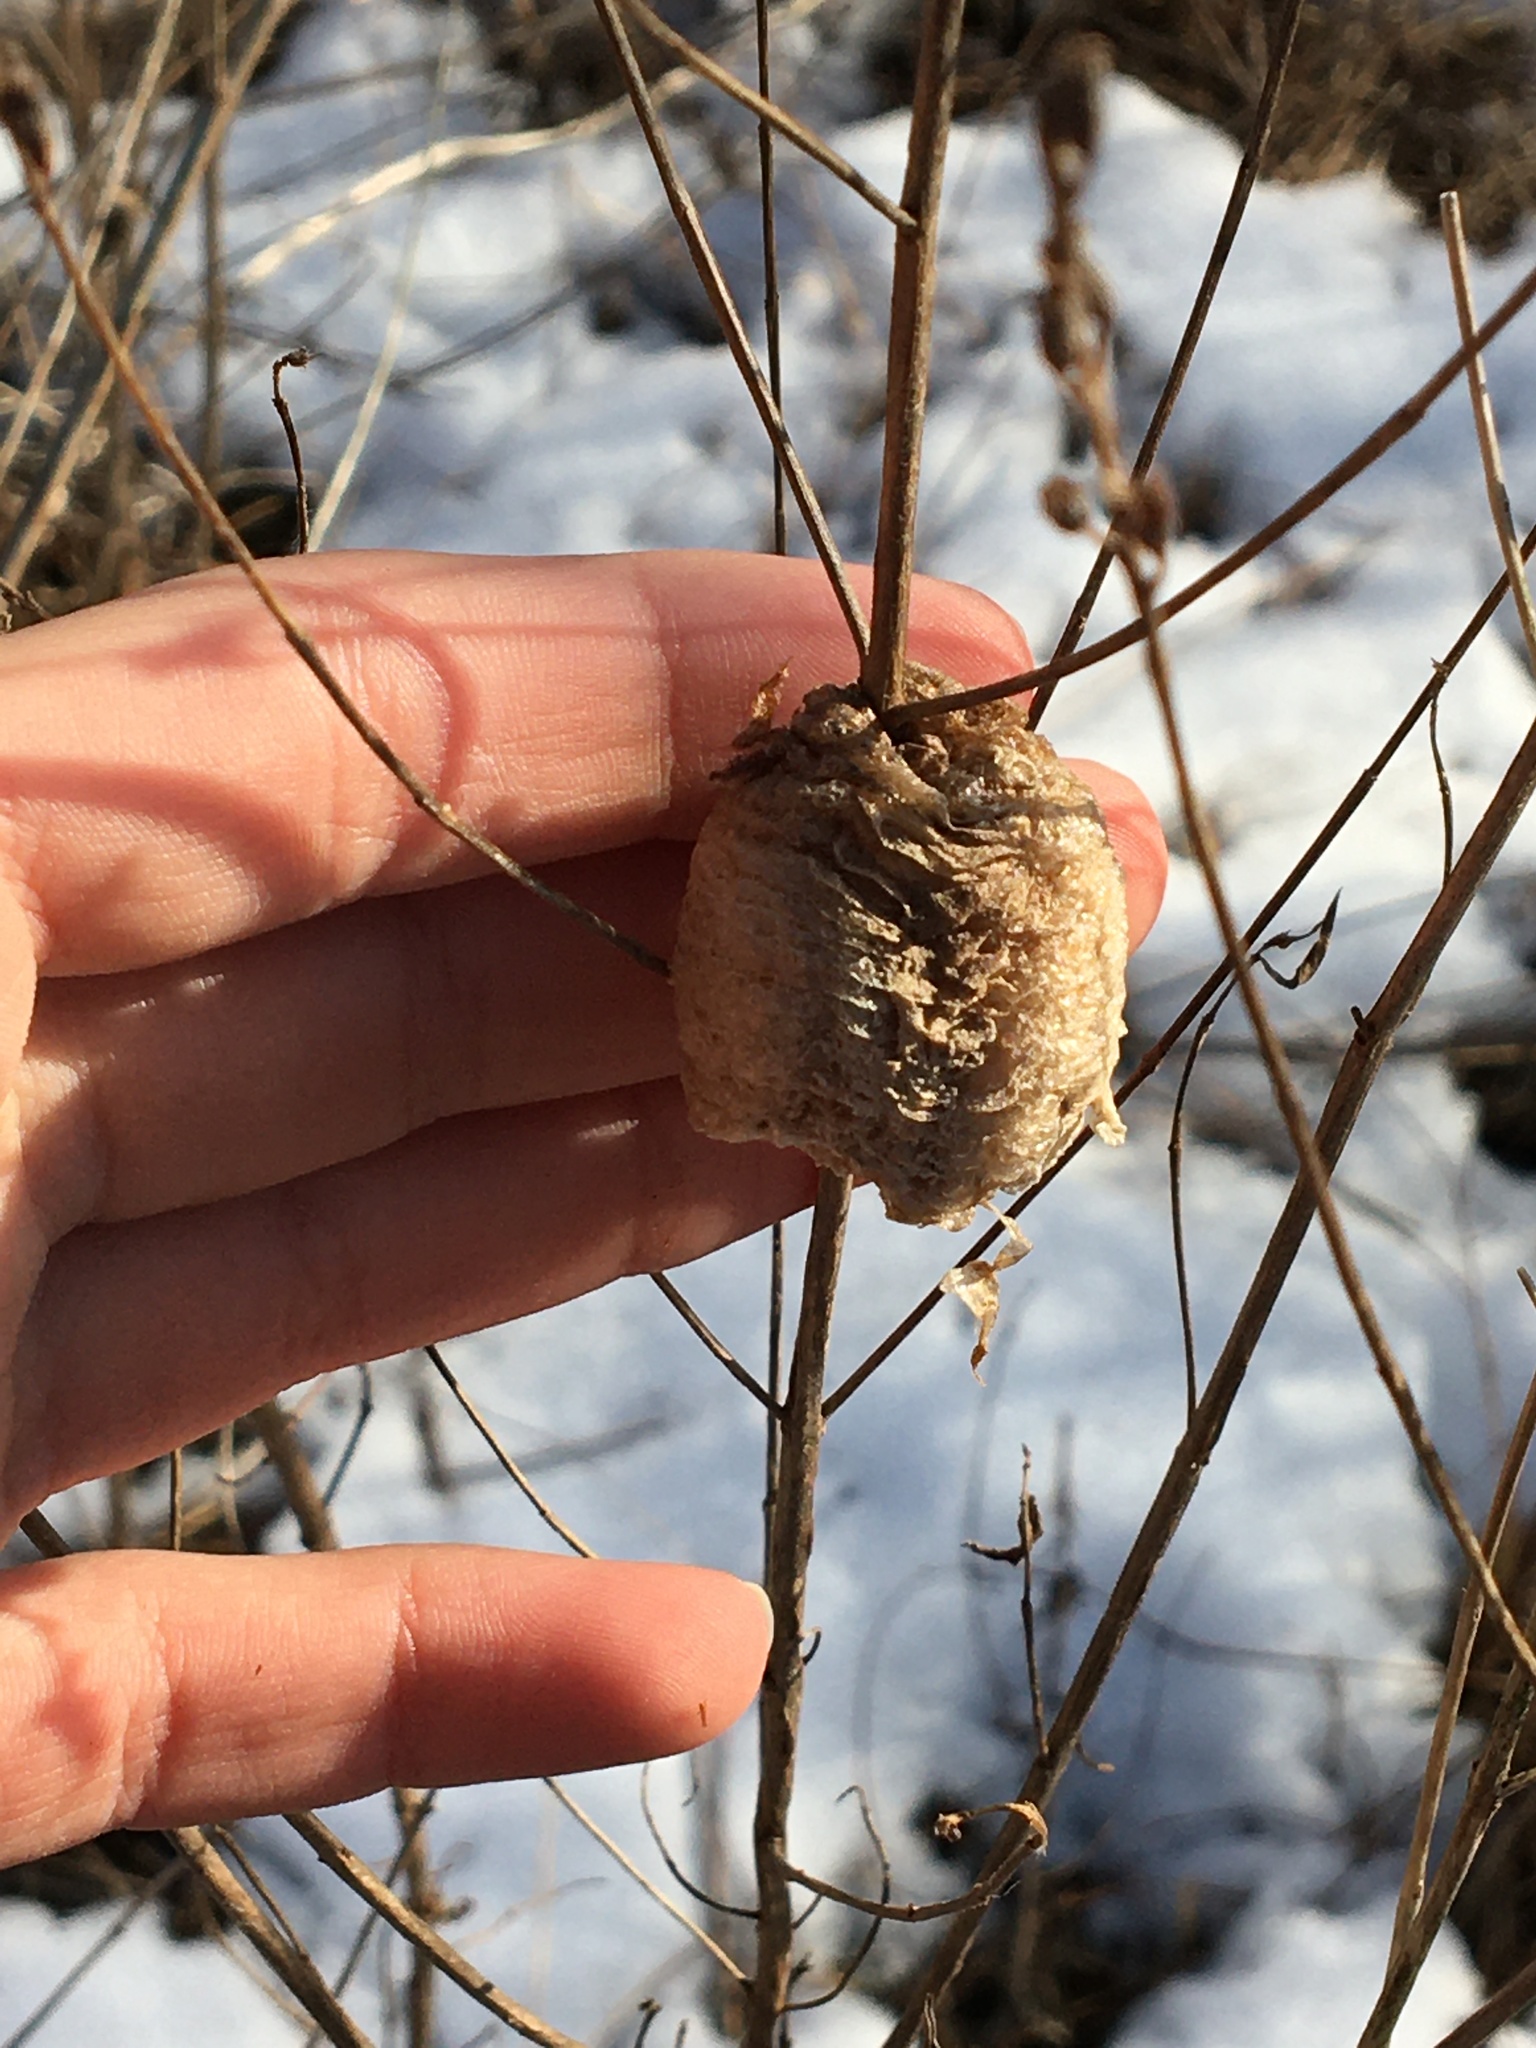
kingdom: Animalia
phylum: Arthropoda
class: Insecta
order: Mantodea
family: Mantidae
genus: Tenodera
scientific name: Tenodera sinensis
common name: Chinese mantis
